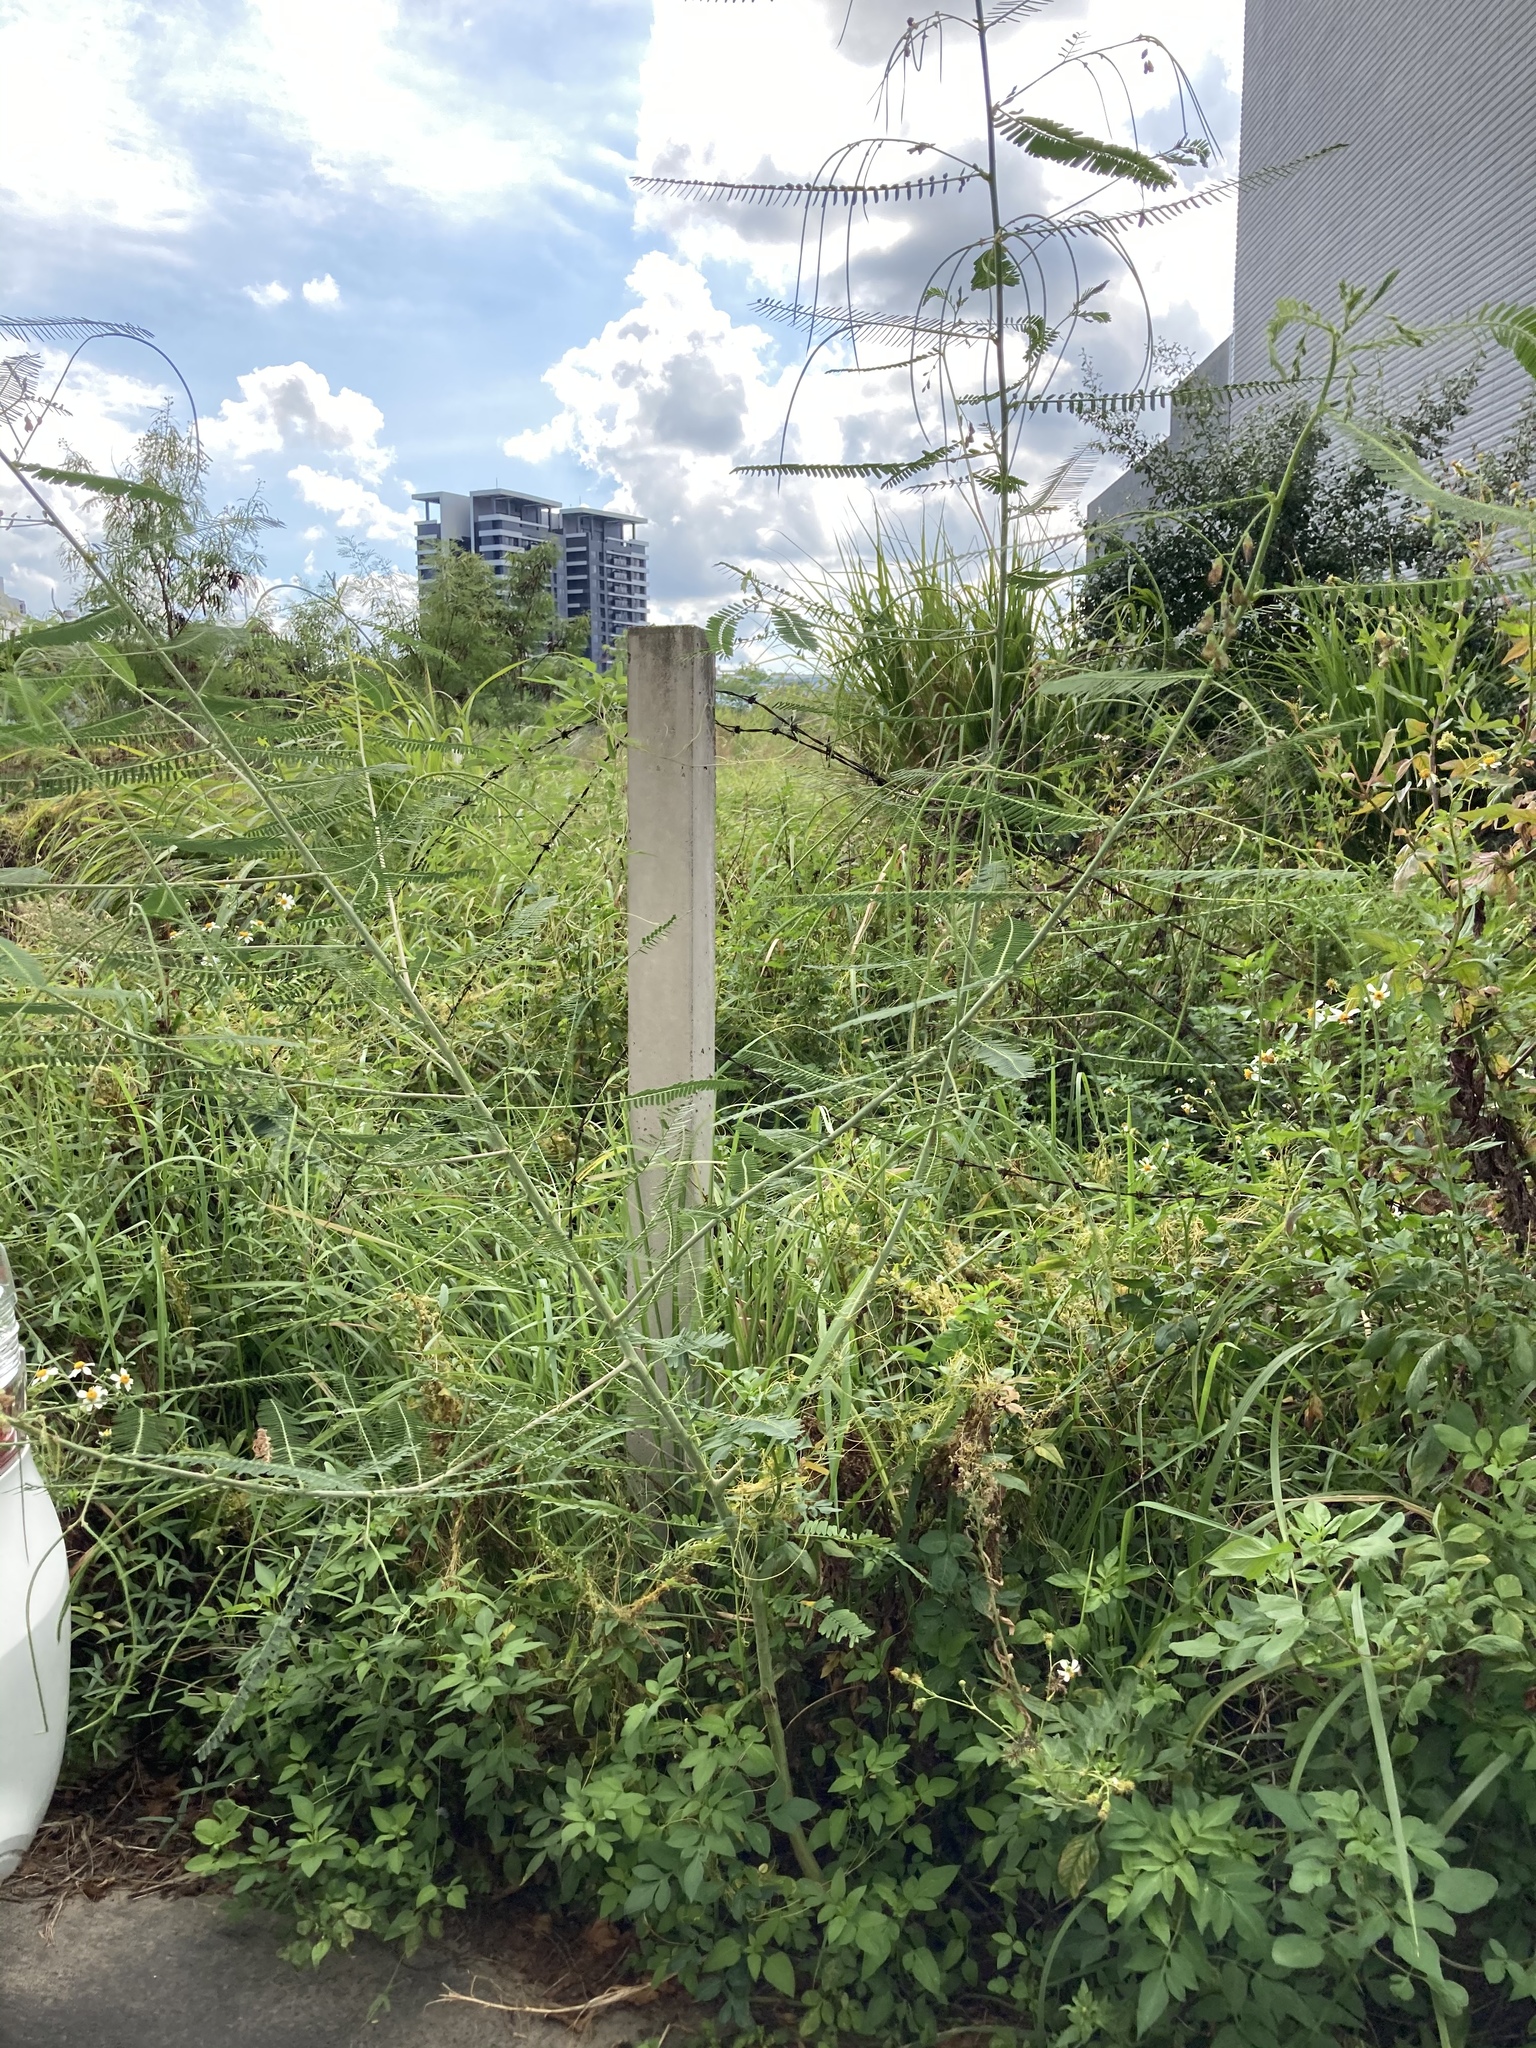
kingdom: Plantae
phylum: Tracheophyta
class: Magnoliopsida
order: Fabales
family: Fabaceae
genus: Sesbania
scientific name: Sesbania cannabina
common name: Canicha
